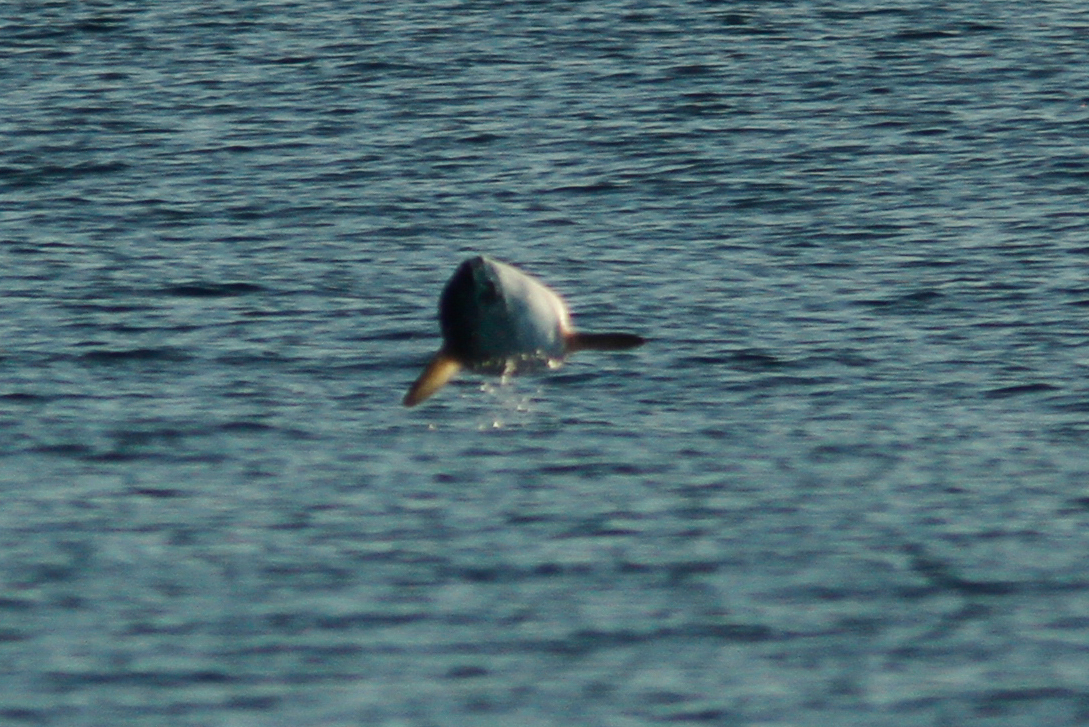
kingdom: Animalia
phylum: Chordata
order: Tetraodontiformes
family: Molidae
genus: Mola
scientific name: Mola mola
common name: Ocean sunfish
